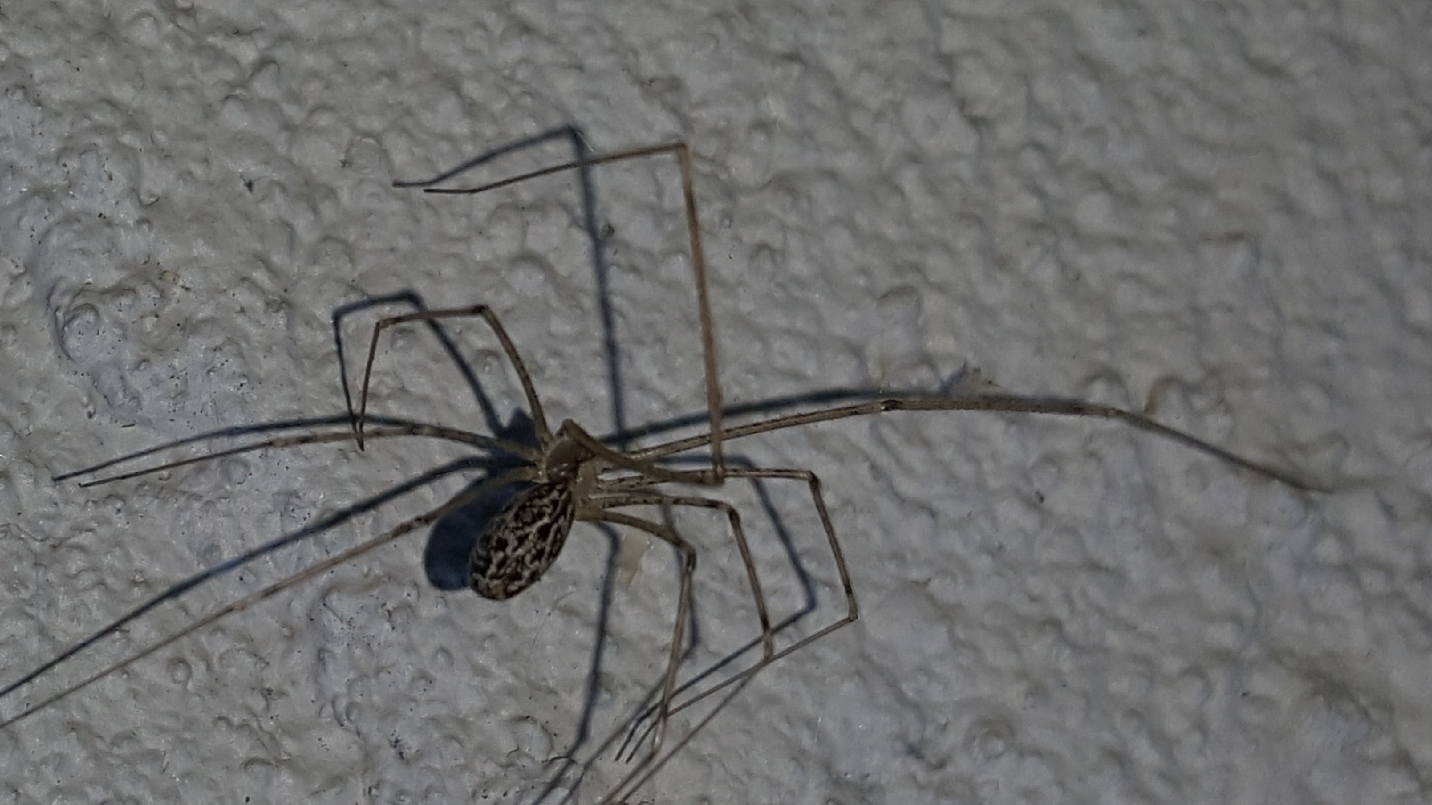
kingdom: Animalia
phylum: Arthropoda
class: Arachnida
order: Araneae
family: Pholcidae
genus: Holocnemus
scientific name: Holocnemus pluchei
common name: Marbled cellar spider
